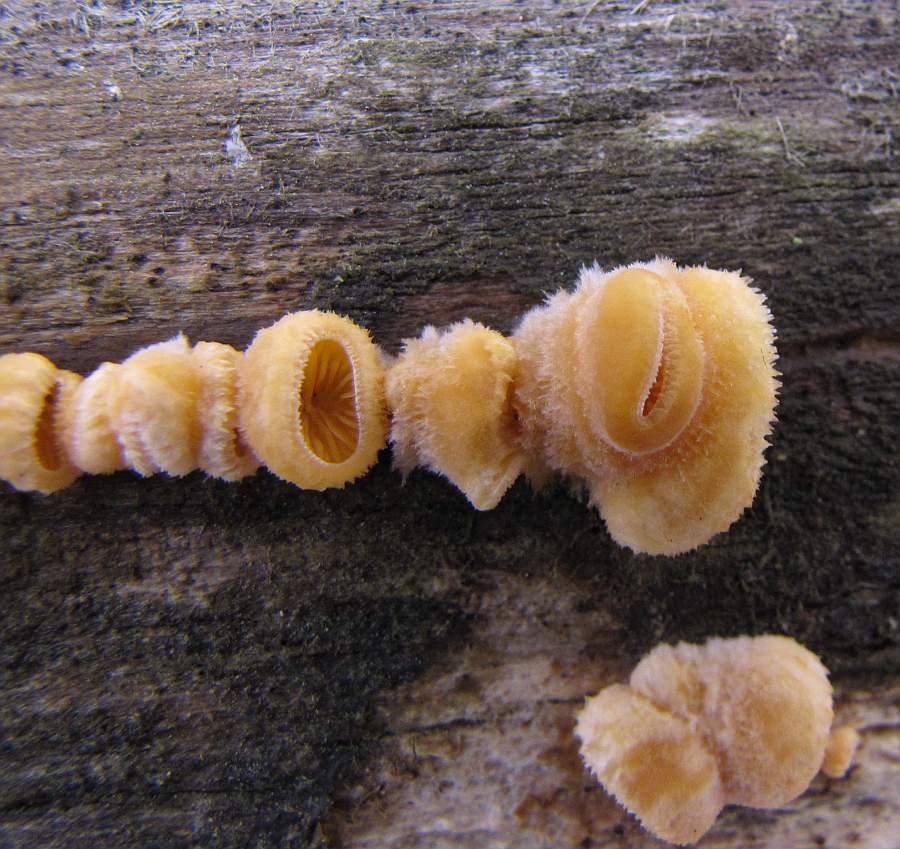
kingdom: Fungi
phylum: Basidiomycota
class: Agaricomycetes
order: Agaricales
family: Phyllotopsidaceae
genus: Phyllotopsis
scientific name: Phyllotopsis nidulans
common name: Orange mock oyster
